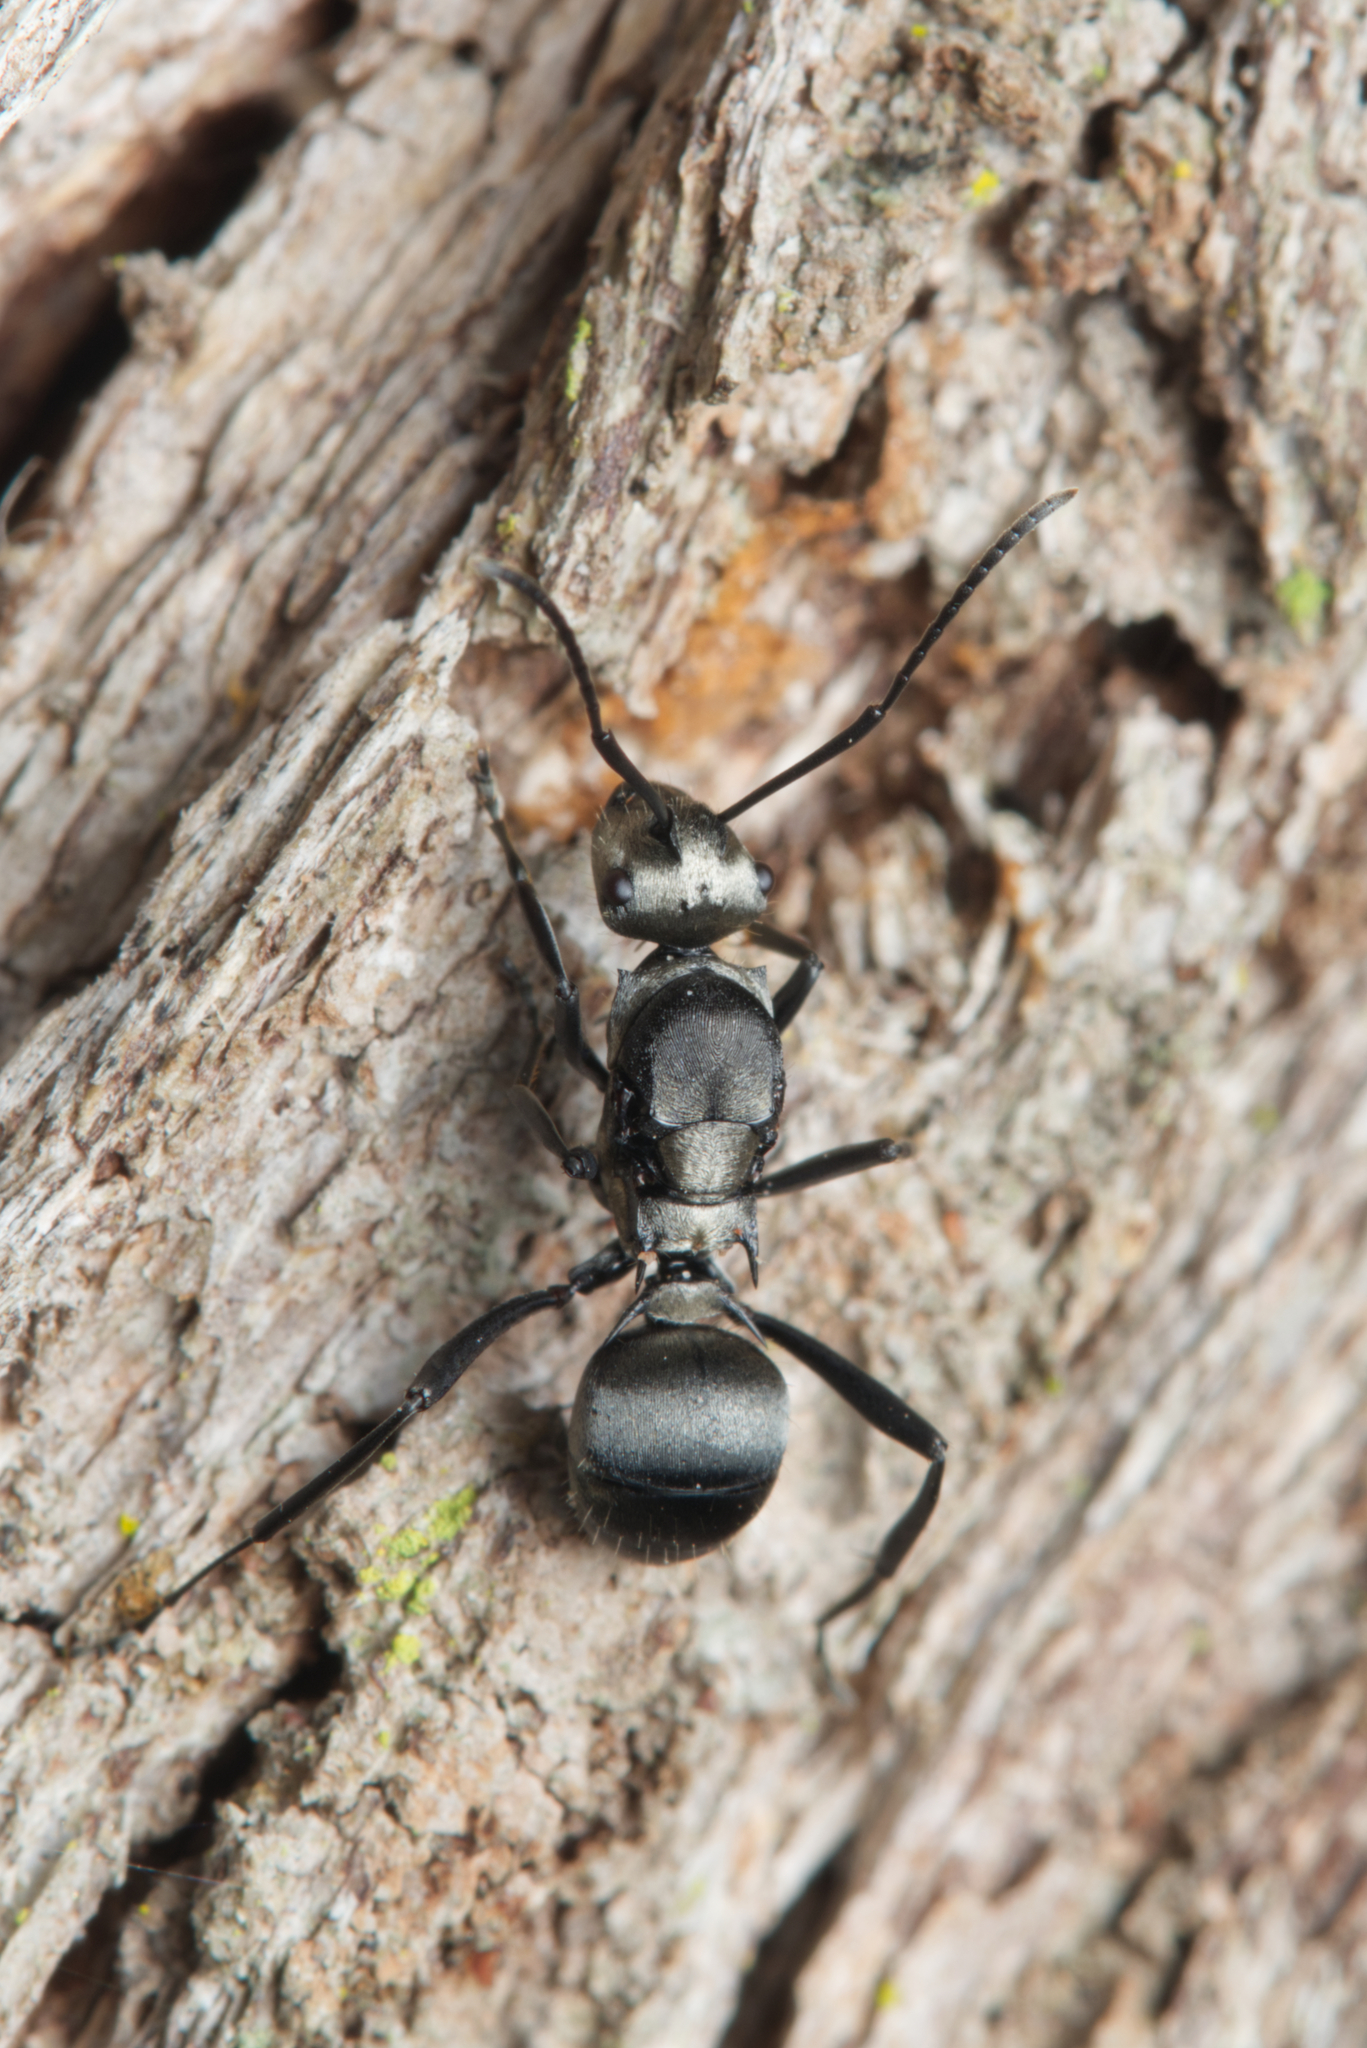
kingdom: Animalia
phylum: Arthropoda
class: Insecta
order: Hymenoptera
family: Formicidae
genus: Polyrhachis
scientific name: Polyrhachis daemeli
